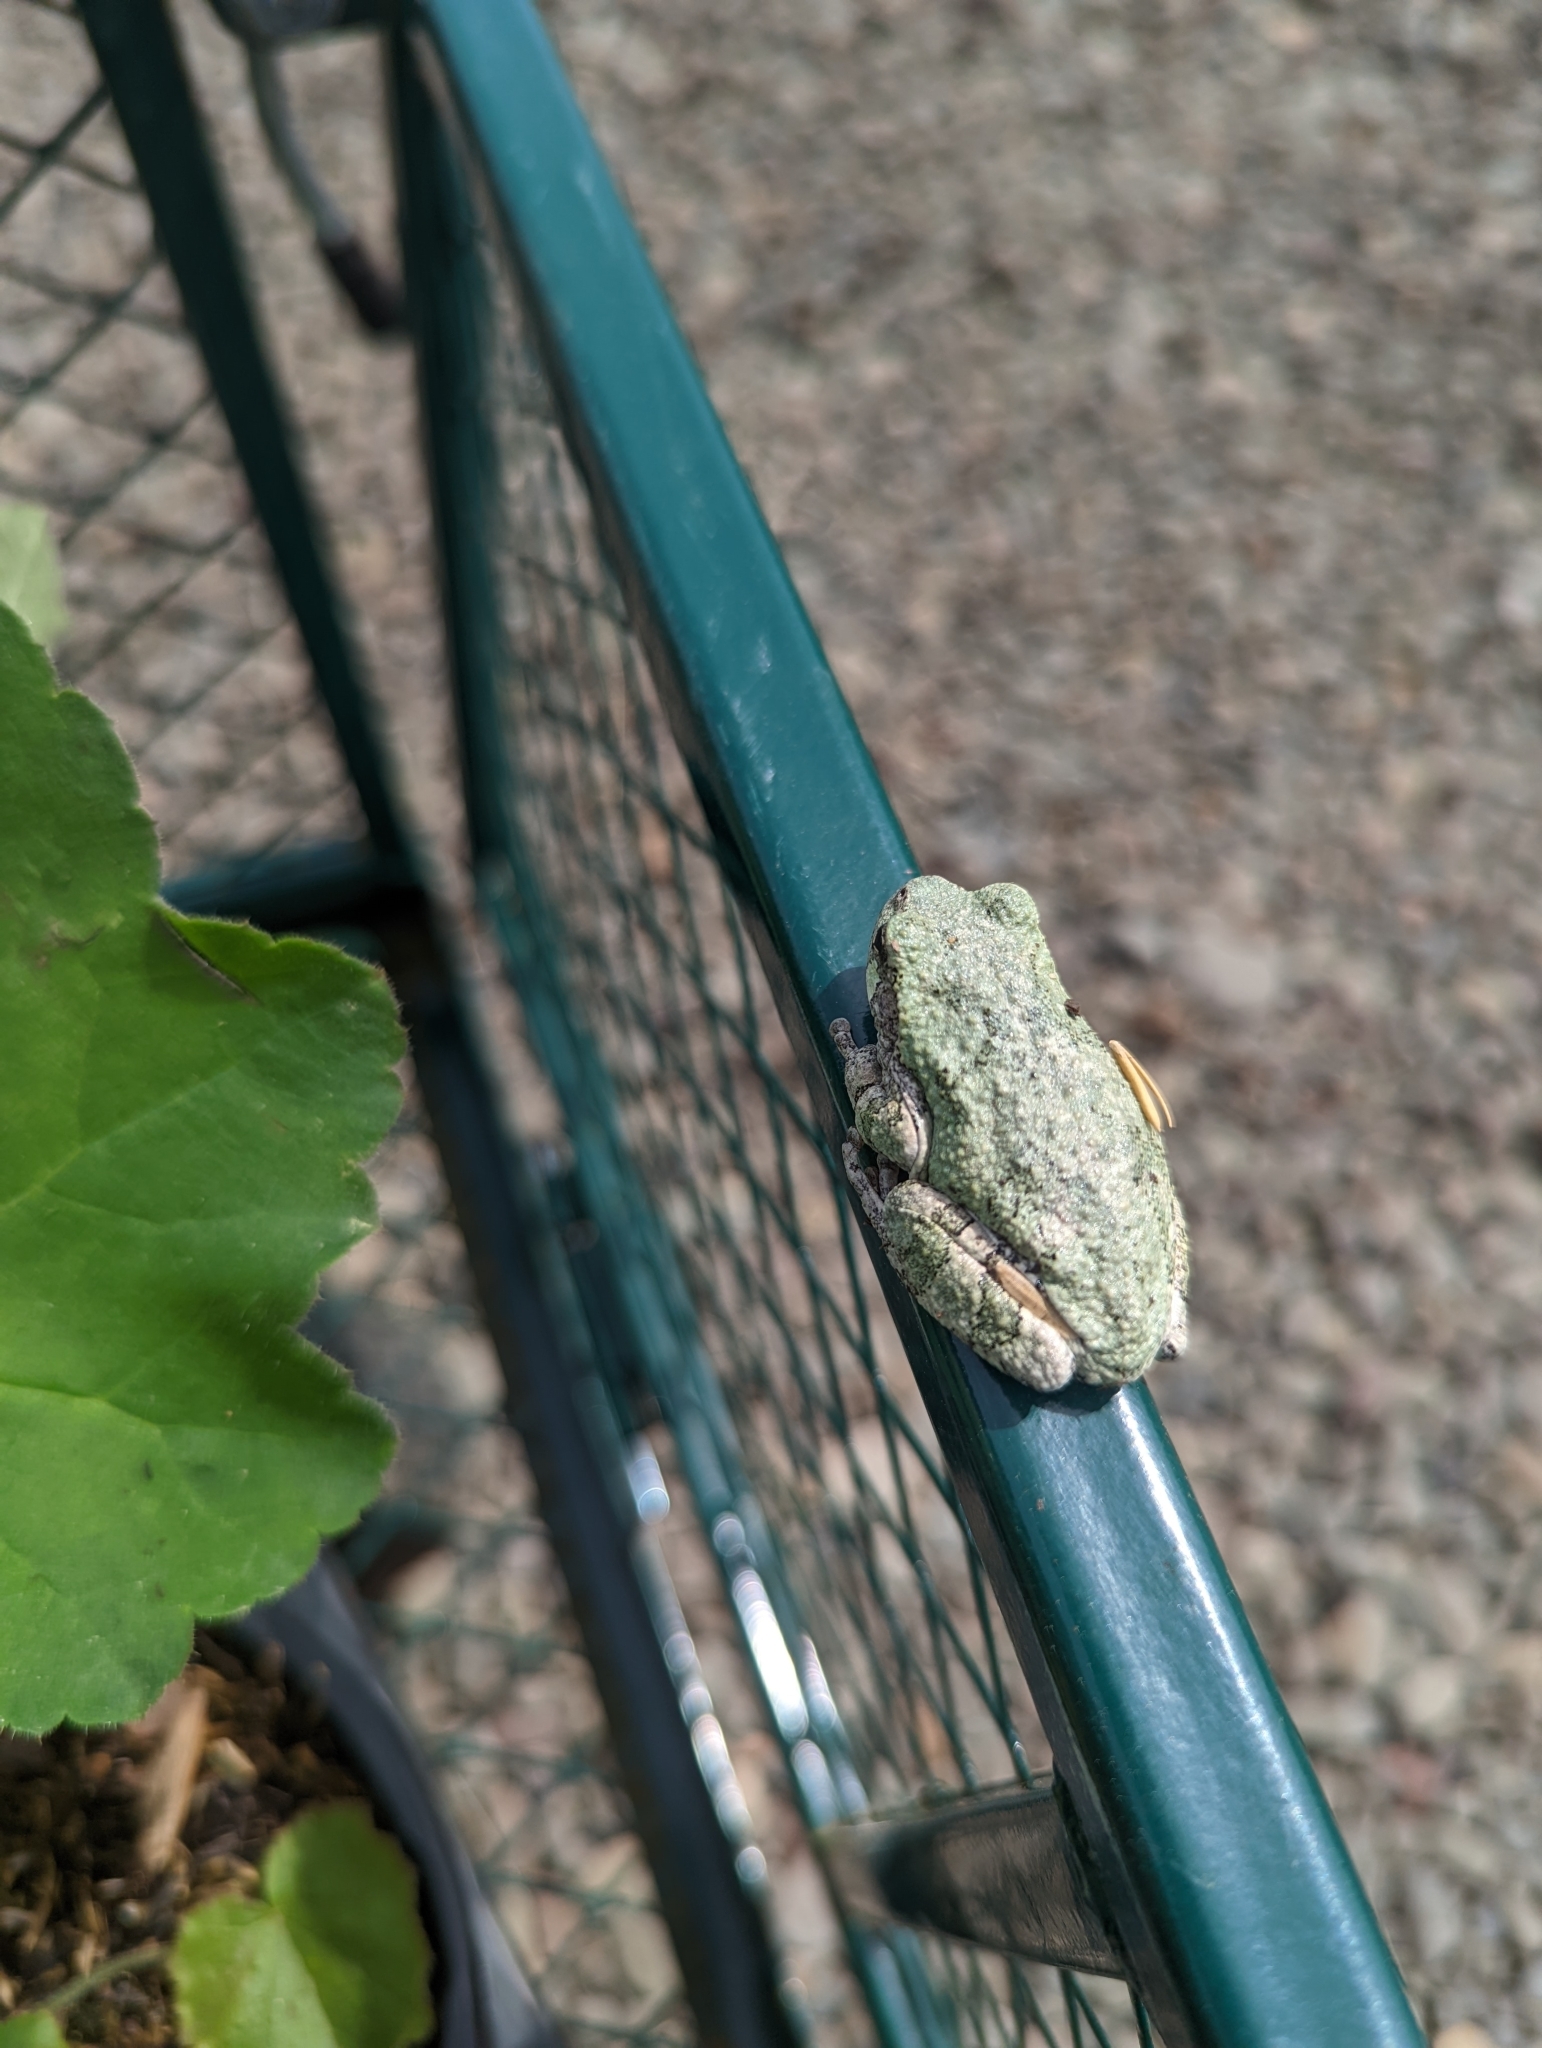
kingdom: Animalia
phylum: Chordata
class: Amphibia
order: Anura
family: Hylidae
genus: Dryophytes
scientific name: Dryophytes versicolor
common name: Gray treefrog
